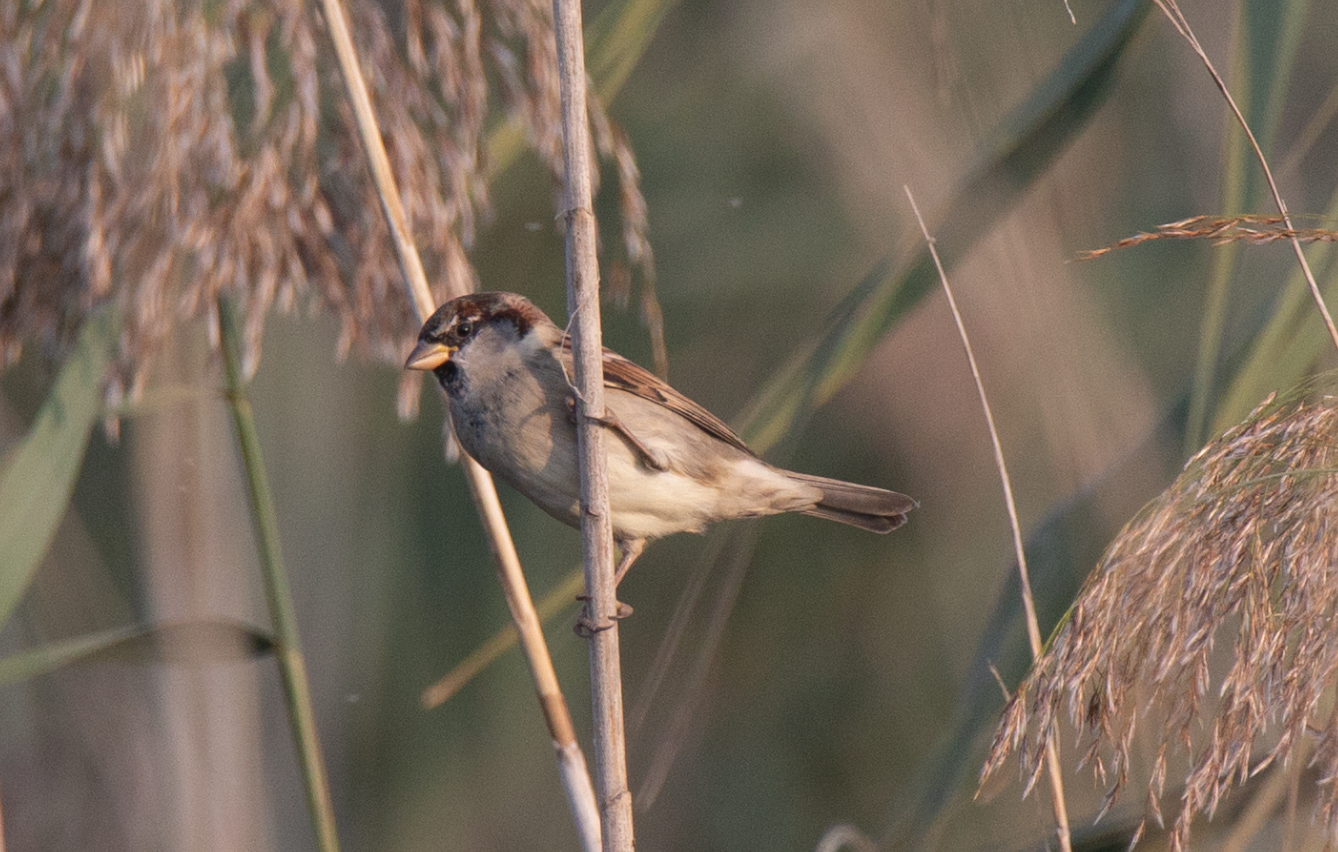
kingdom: Animalia
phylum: Chordata
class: Aves
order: Passeriformes
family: Passeridae
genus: Passer
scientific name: Passer domesticus
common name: House sparrow
